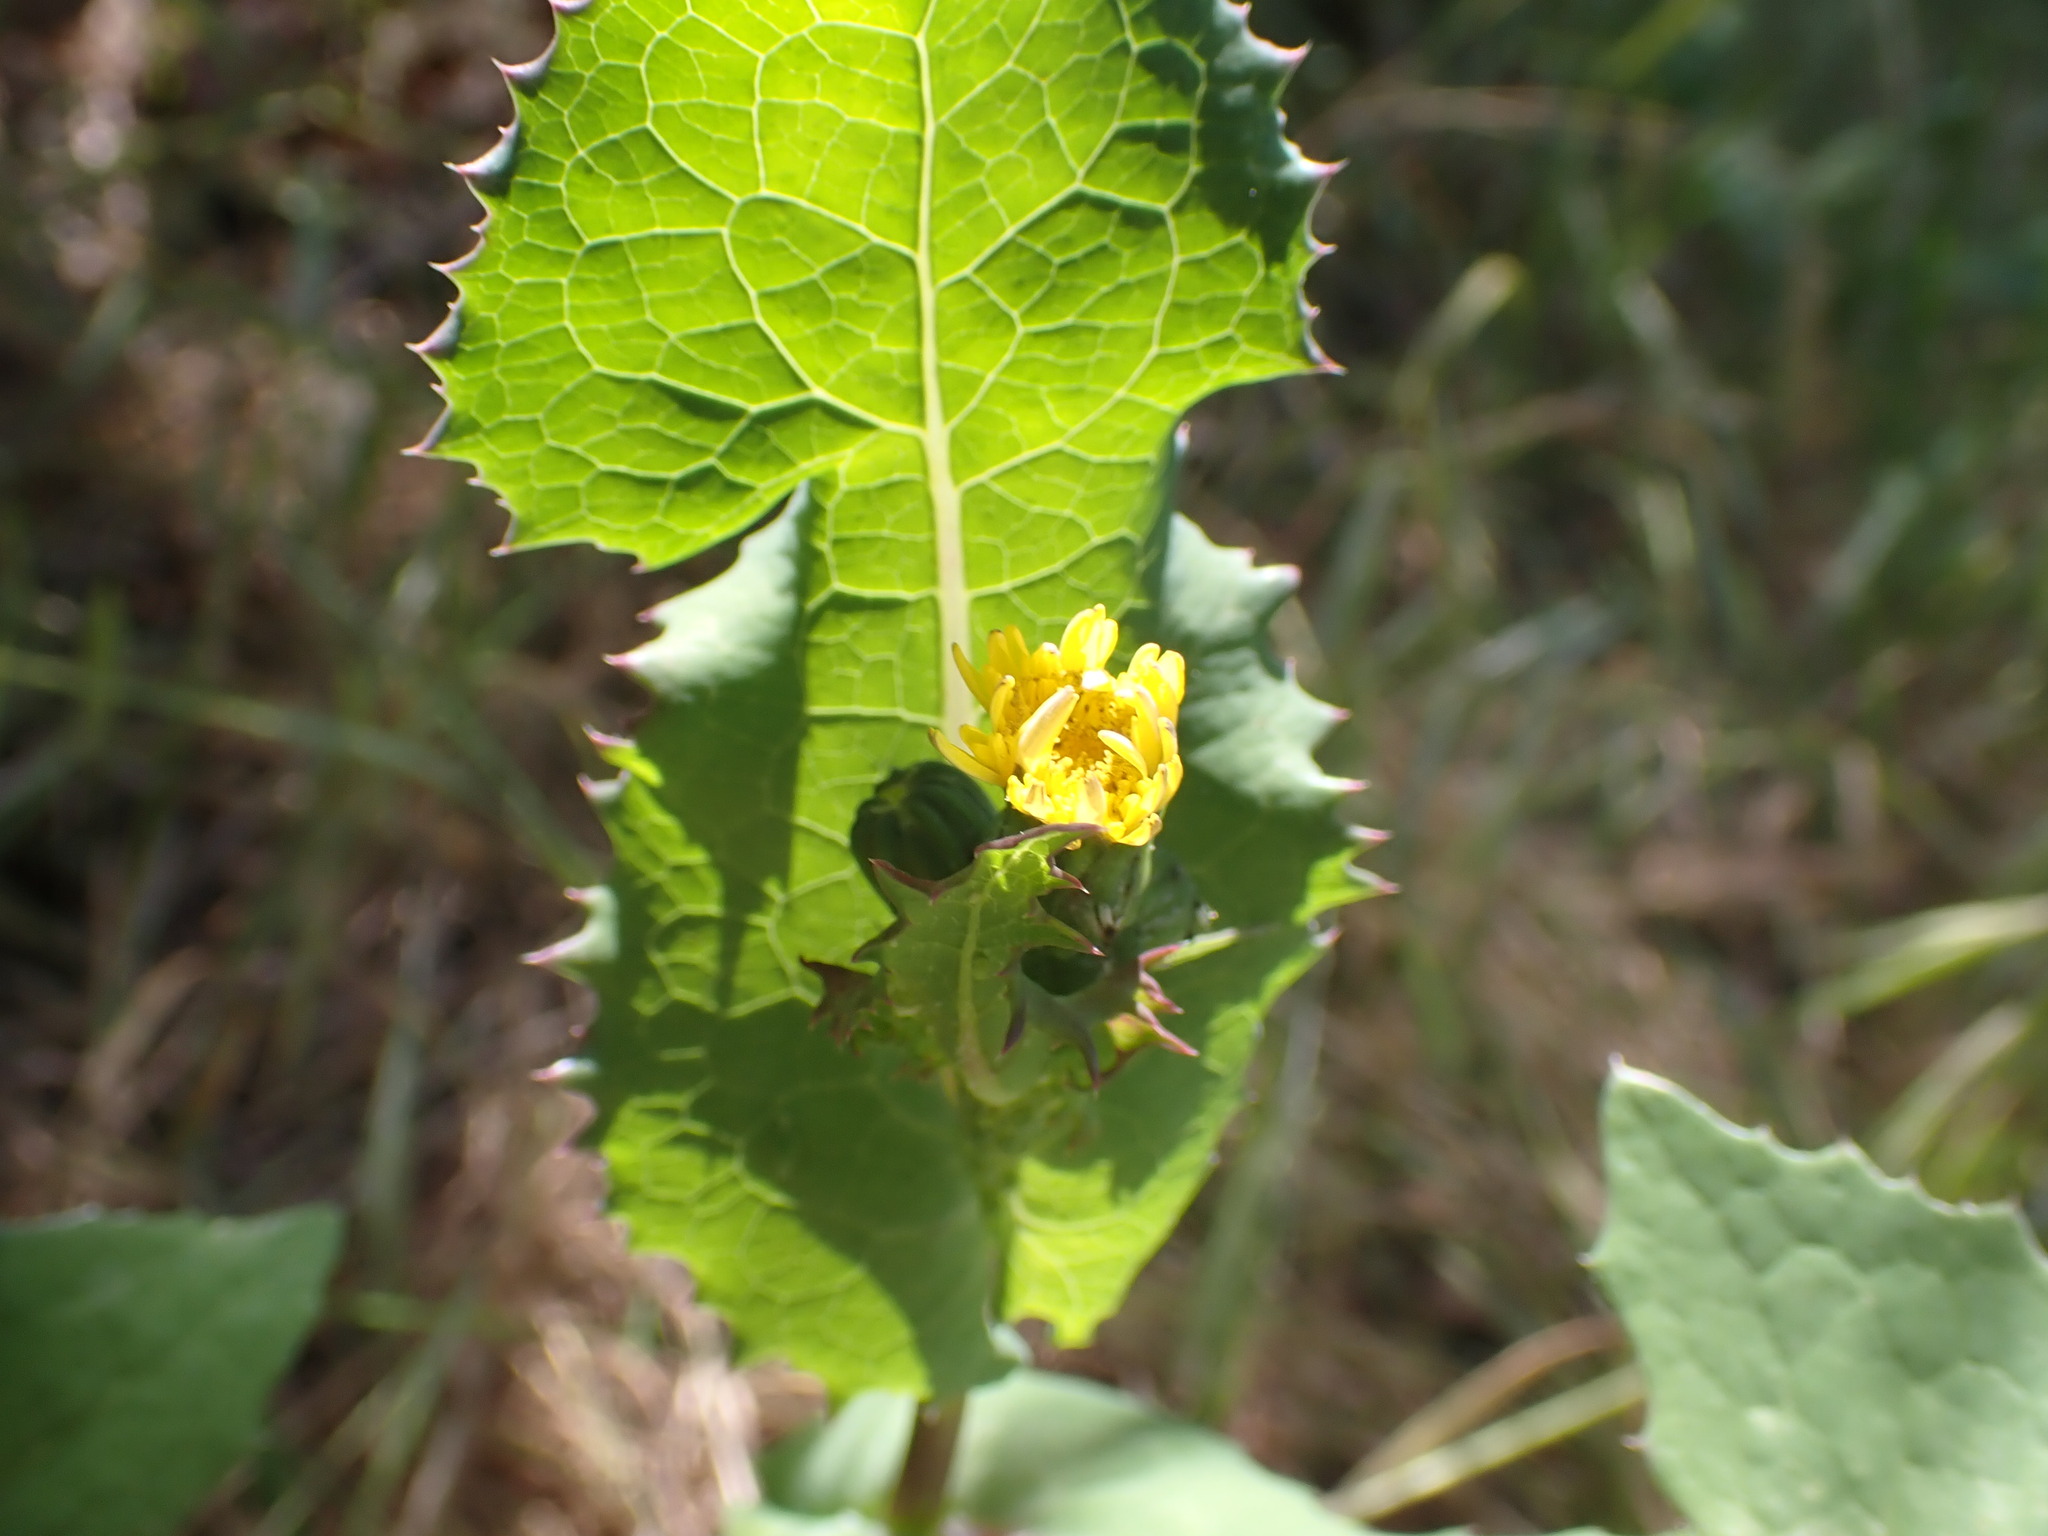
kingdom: Plantae
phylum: Tracheophyta
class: Magnoliopsida
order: Asterales
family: Asteraceae
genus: Sonchus
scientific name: Sonchus oleraceus
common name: Common sowthistle
